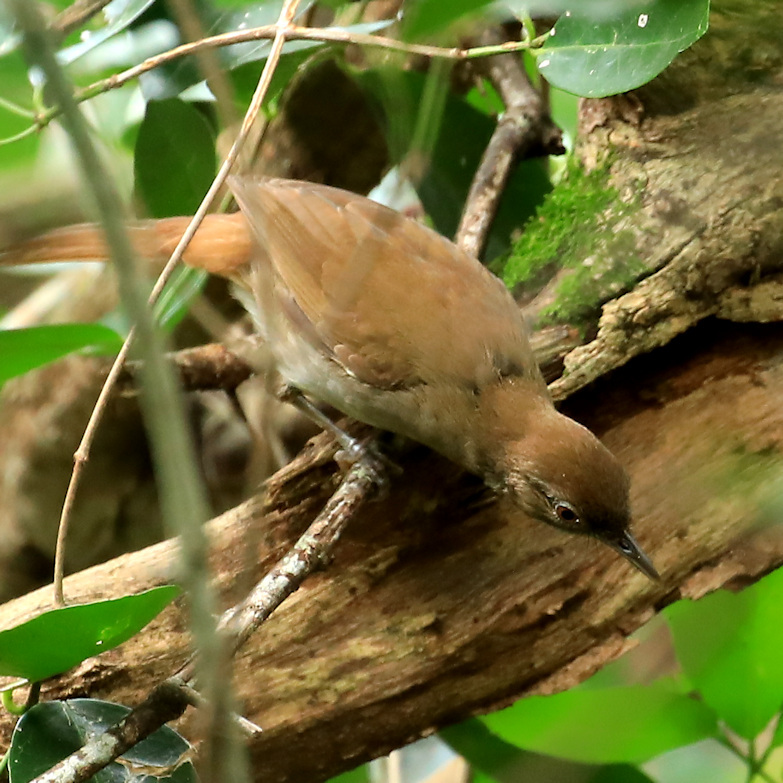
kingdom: Animalia
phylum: Chordata
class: Aves
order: Passeriformes
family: Pycnonotidae
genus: Phyllastrephus
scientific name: Phyllastrephus terrestris
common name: Terrestrial brownbul
